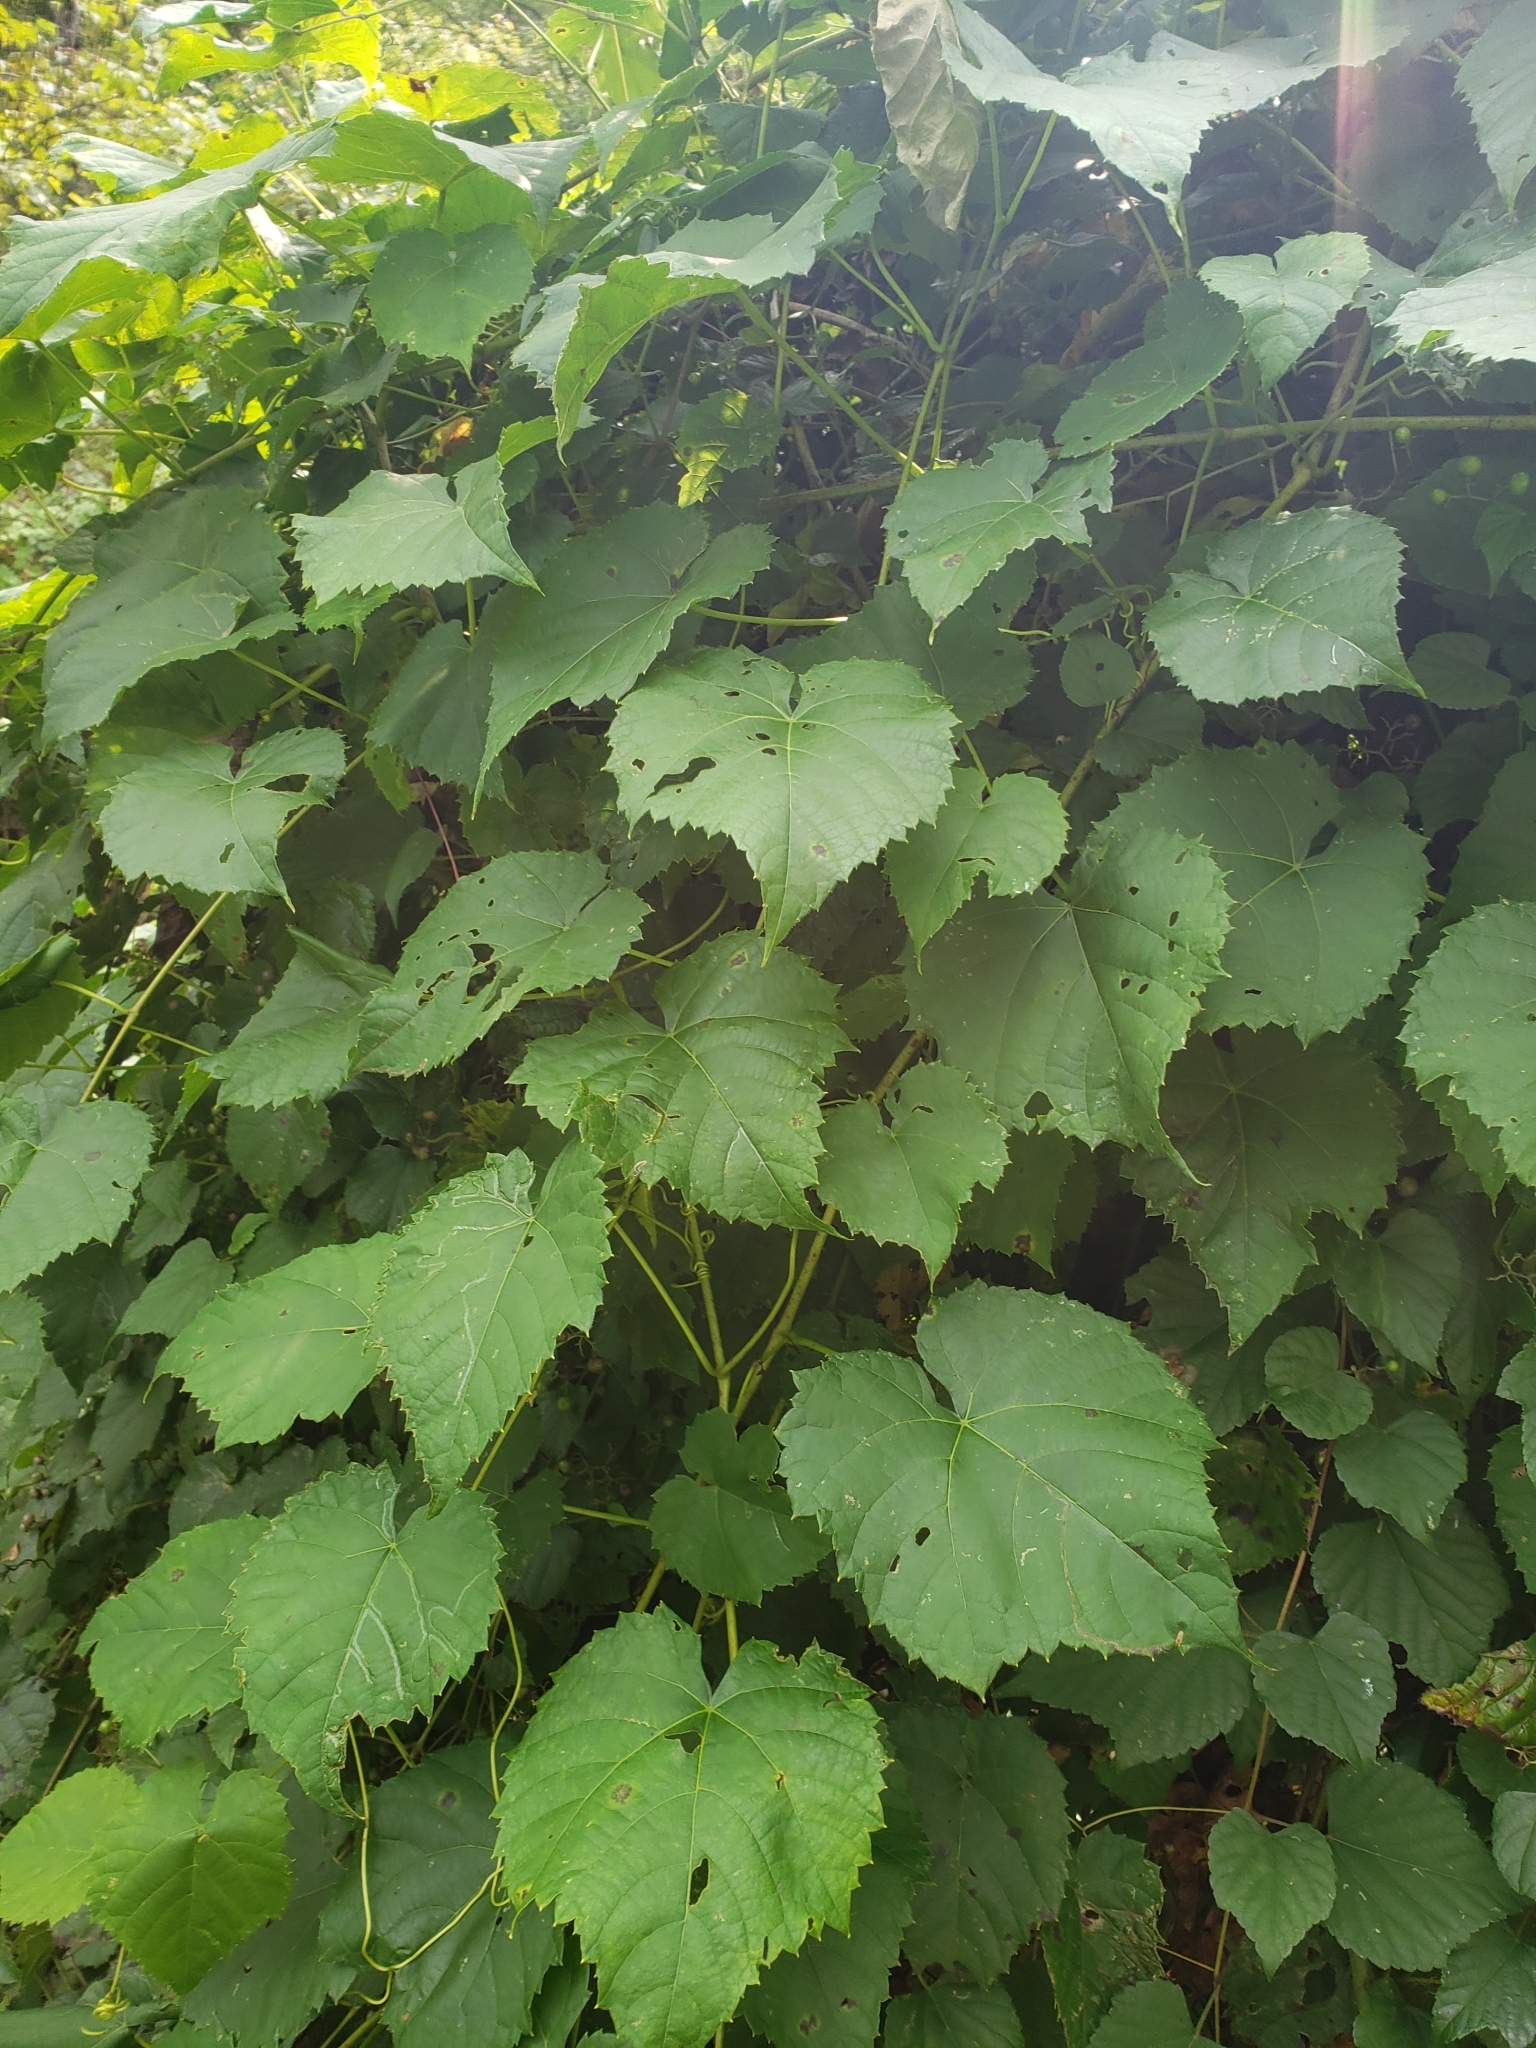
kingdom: Plantae
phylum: Tracheophyta
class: Magnoliopsida
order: Vitales
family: Vitaceae
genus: Ampelopsis
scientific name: Ampelopsis glandulosa
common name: Amur peppervine
